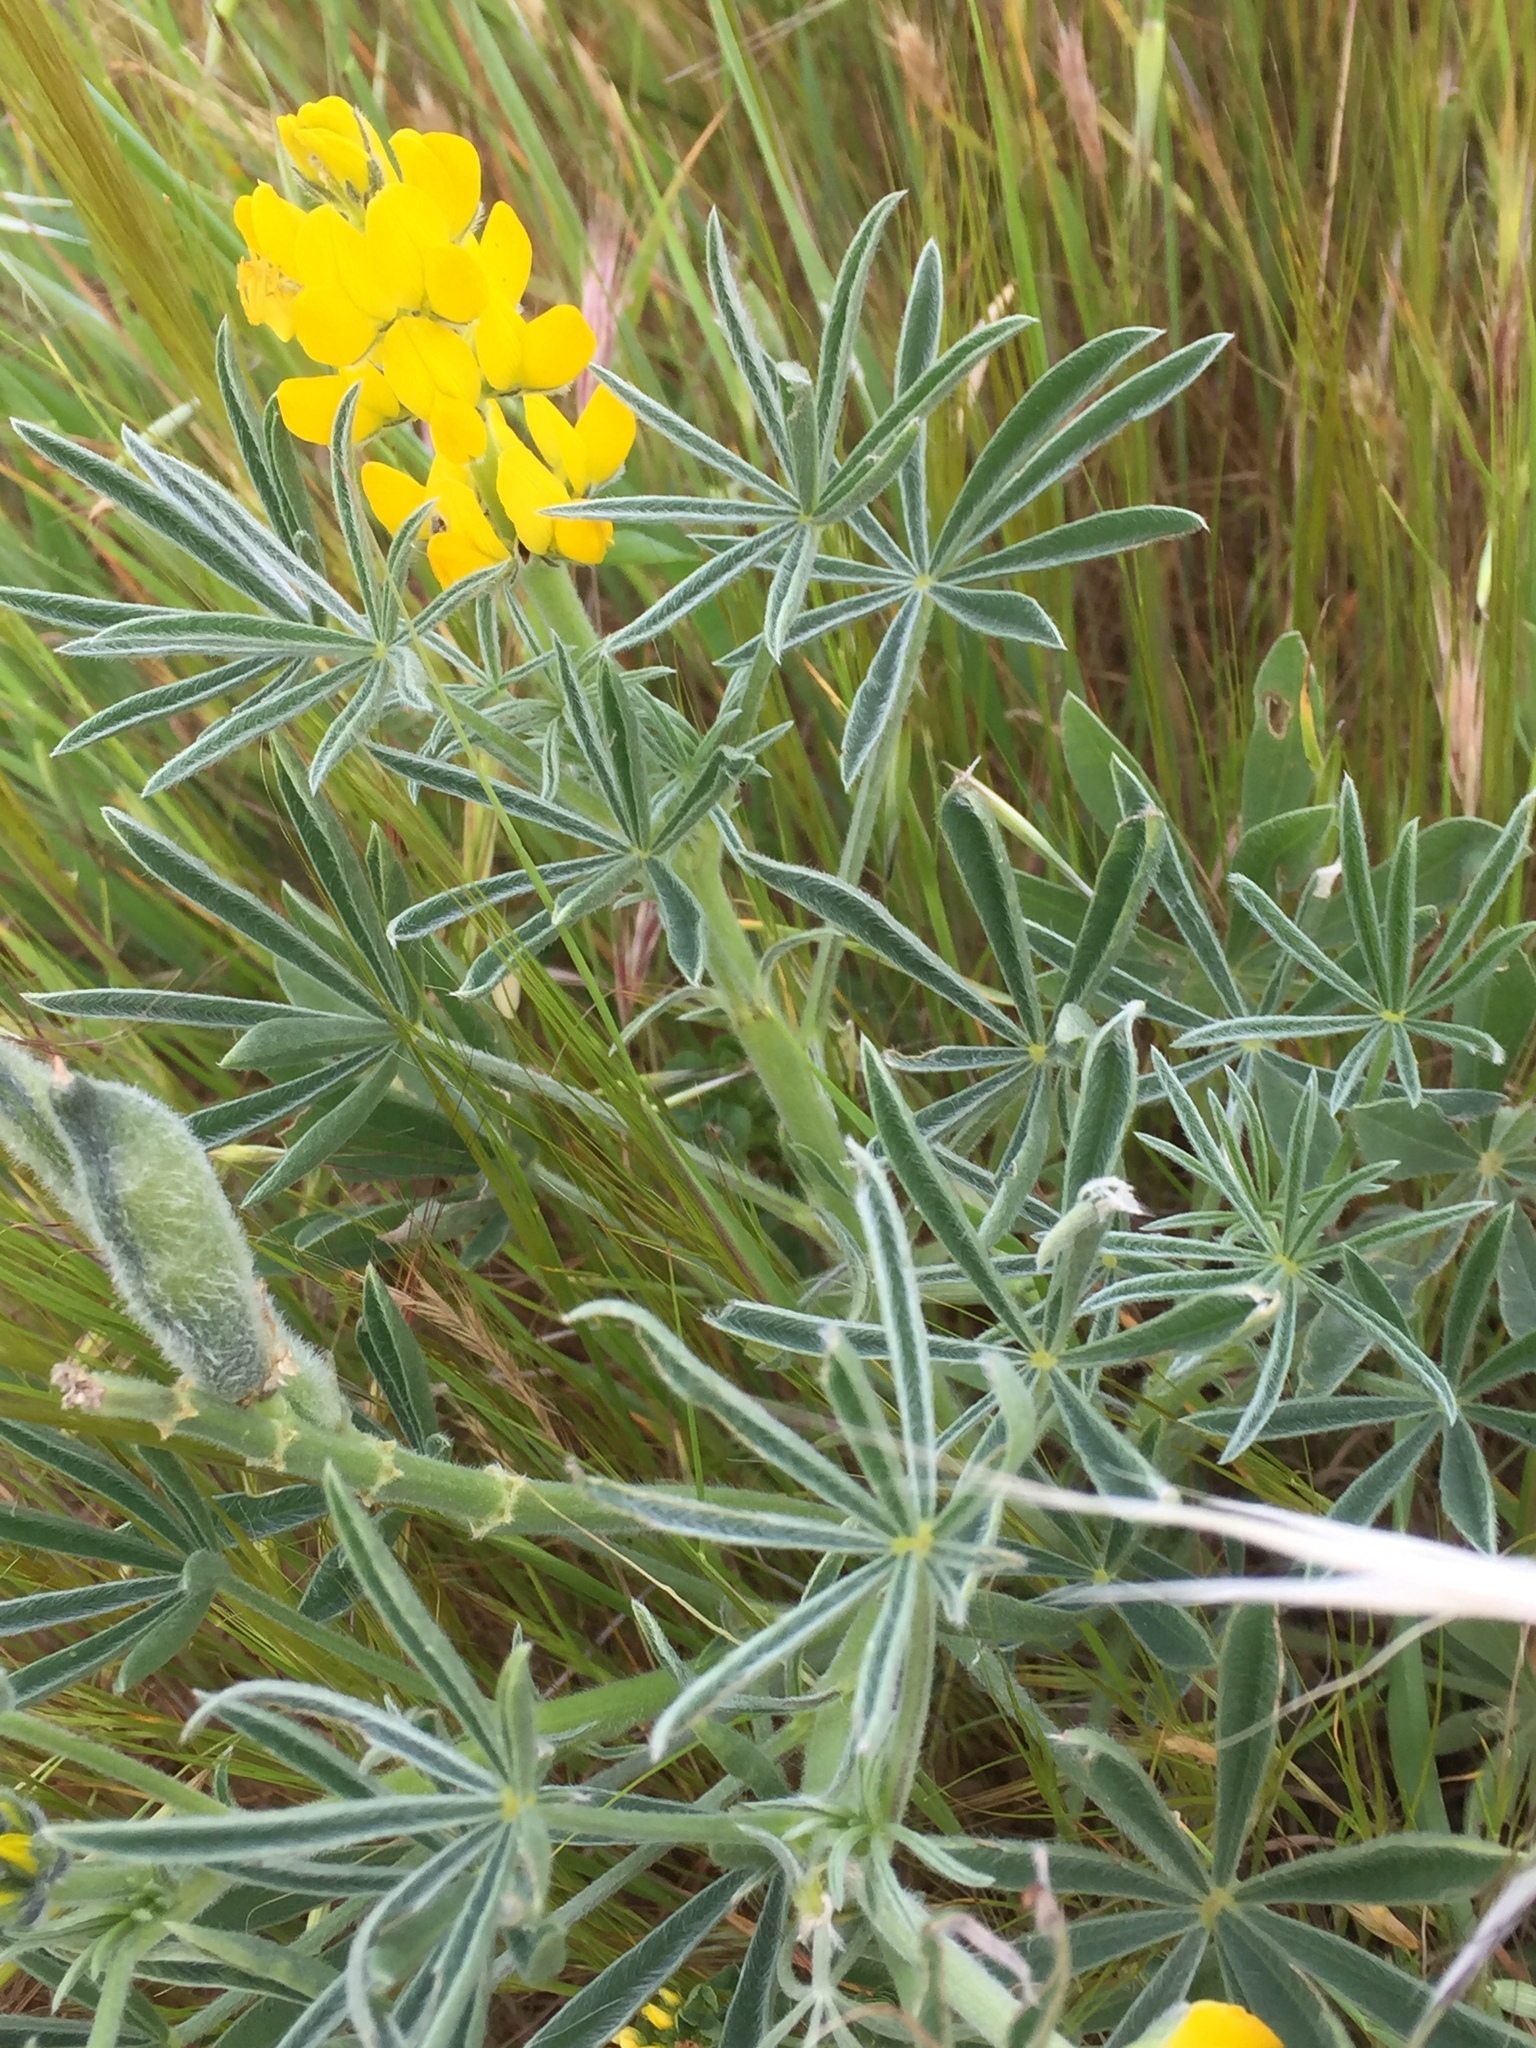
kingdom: Plantae
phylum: Tracheophyta
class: Magnoliopsida
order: Fabales
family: Fabaceae
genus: Lupinus
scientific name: Lupinus luteus
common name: European yellow lupine
